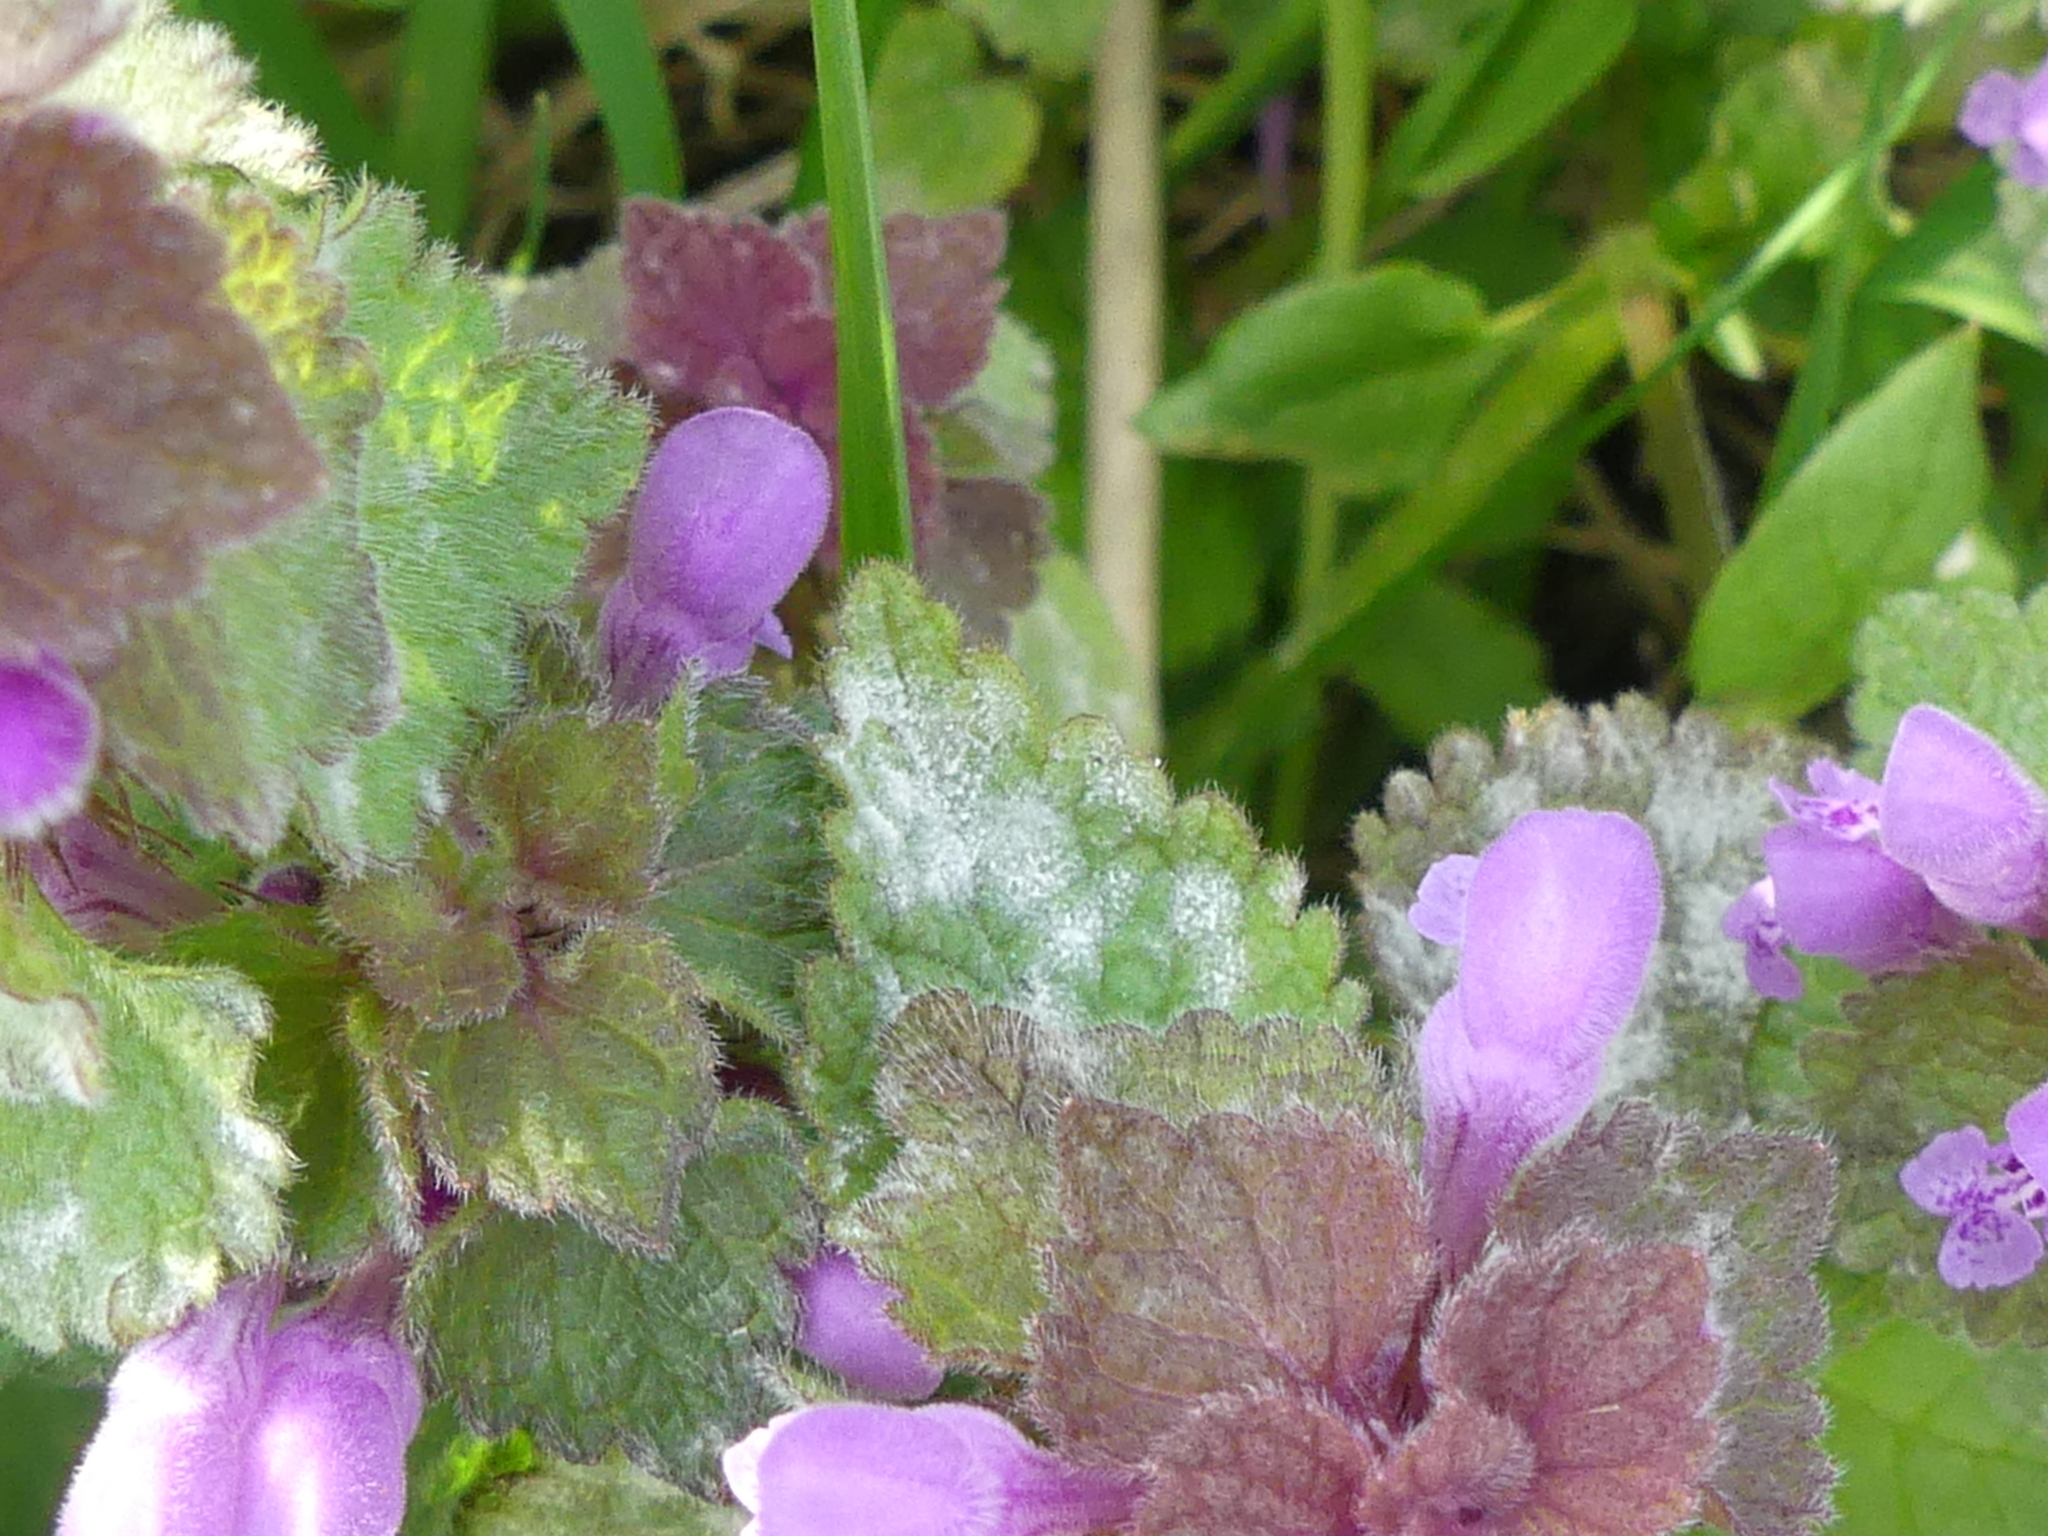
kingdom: Fungi
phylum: Ascomycota
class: Leotiomycetes
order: Helotiales
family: Erysiphaceae
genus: Neoerysiphe
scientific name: Neoerysiphe galeopsidis
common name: Mint mildew
